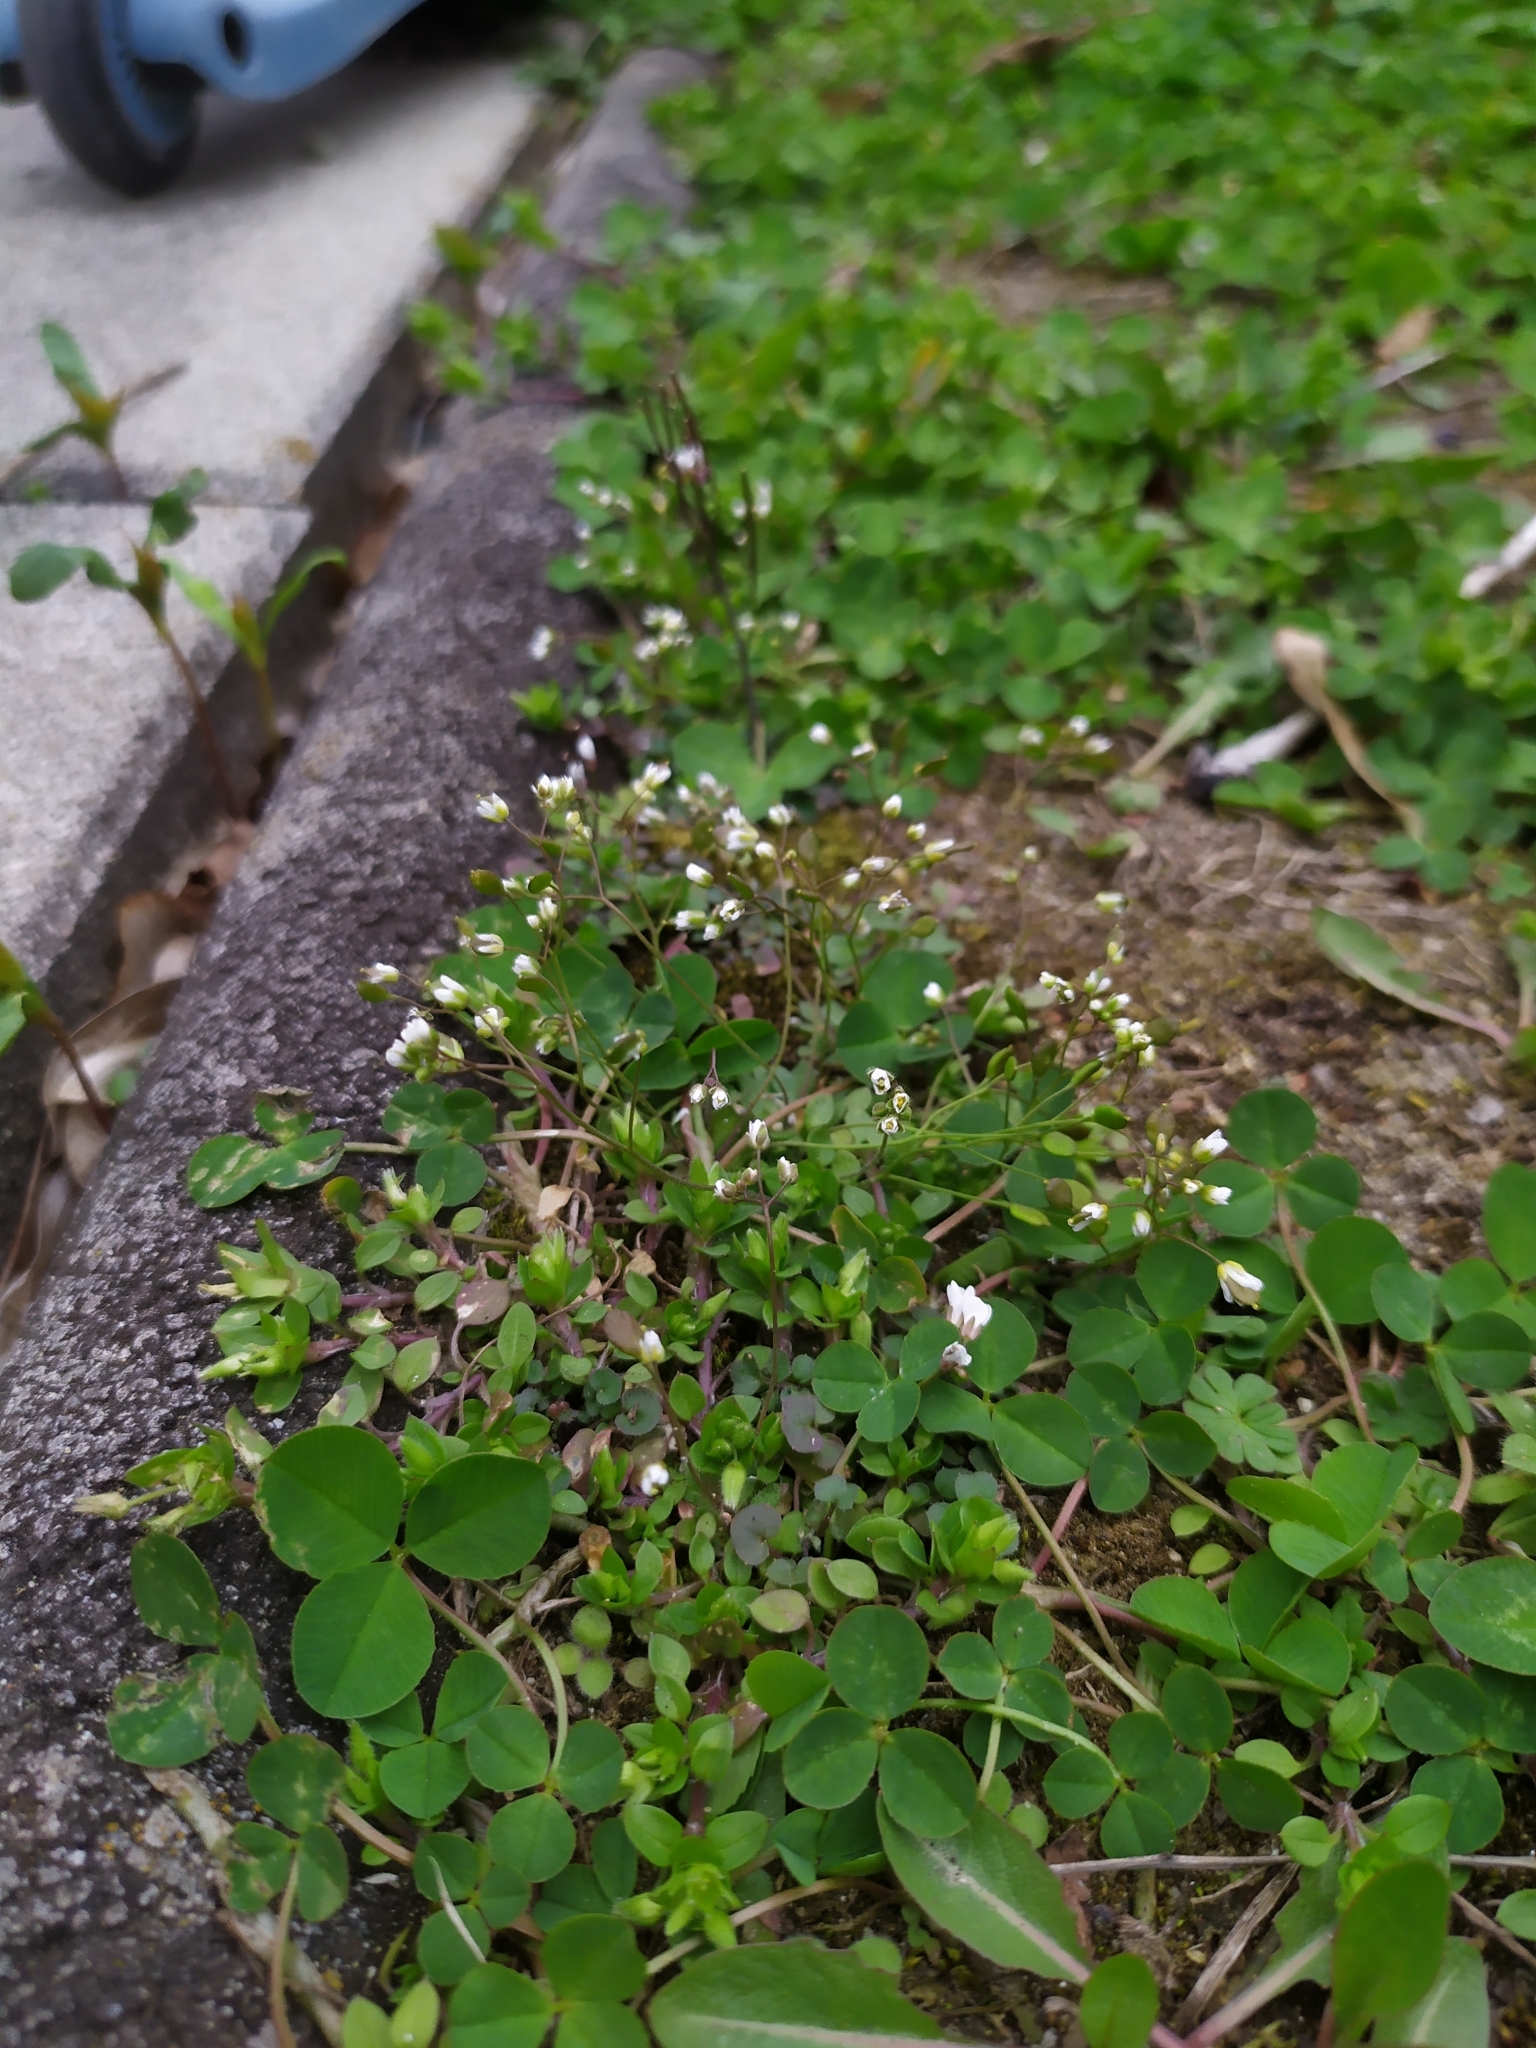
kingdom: Plantae
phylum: Tracheophyta
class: Magnoliopsida
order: Brassicales
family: Brassicaceae
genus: Draba
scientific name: Draba verna
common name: Spring draba
